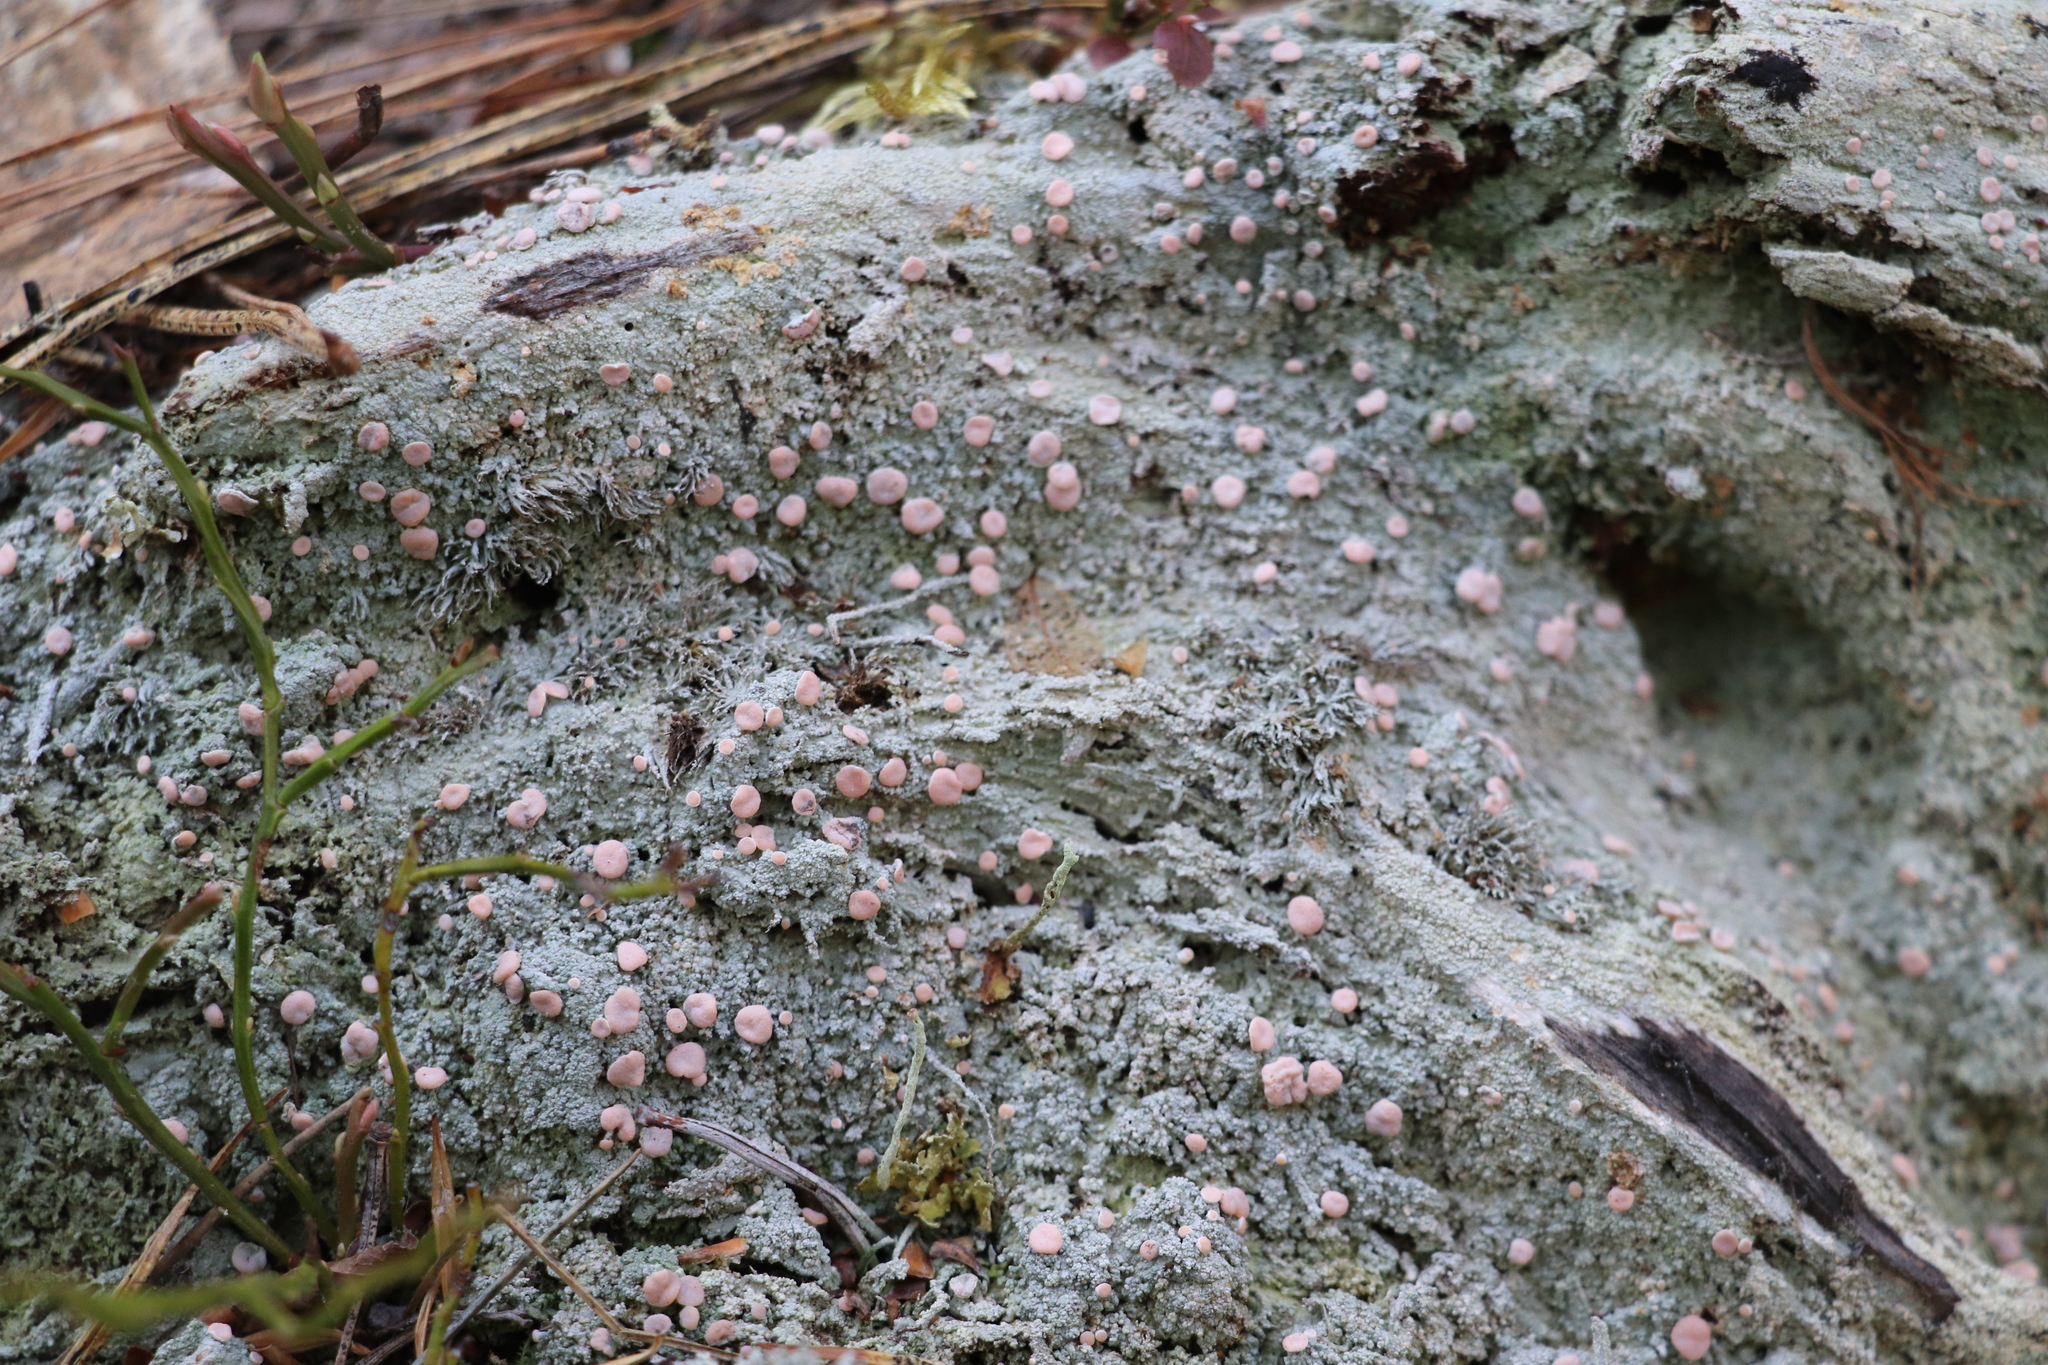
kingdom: Fungi
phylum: Ascomycota
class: Lecanoromycetes
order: Pertusariales
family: Icmadophilaceae
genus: Icmadophila
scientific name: Icmadophila ericetorum
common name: Candy lichen
